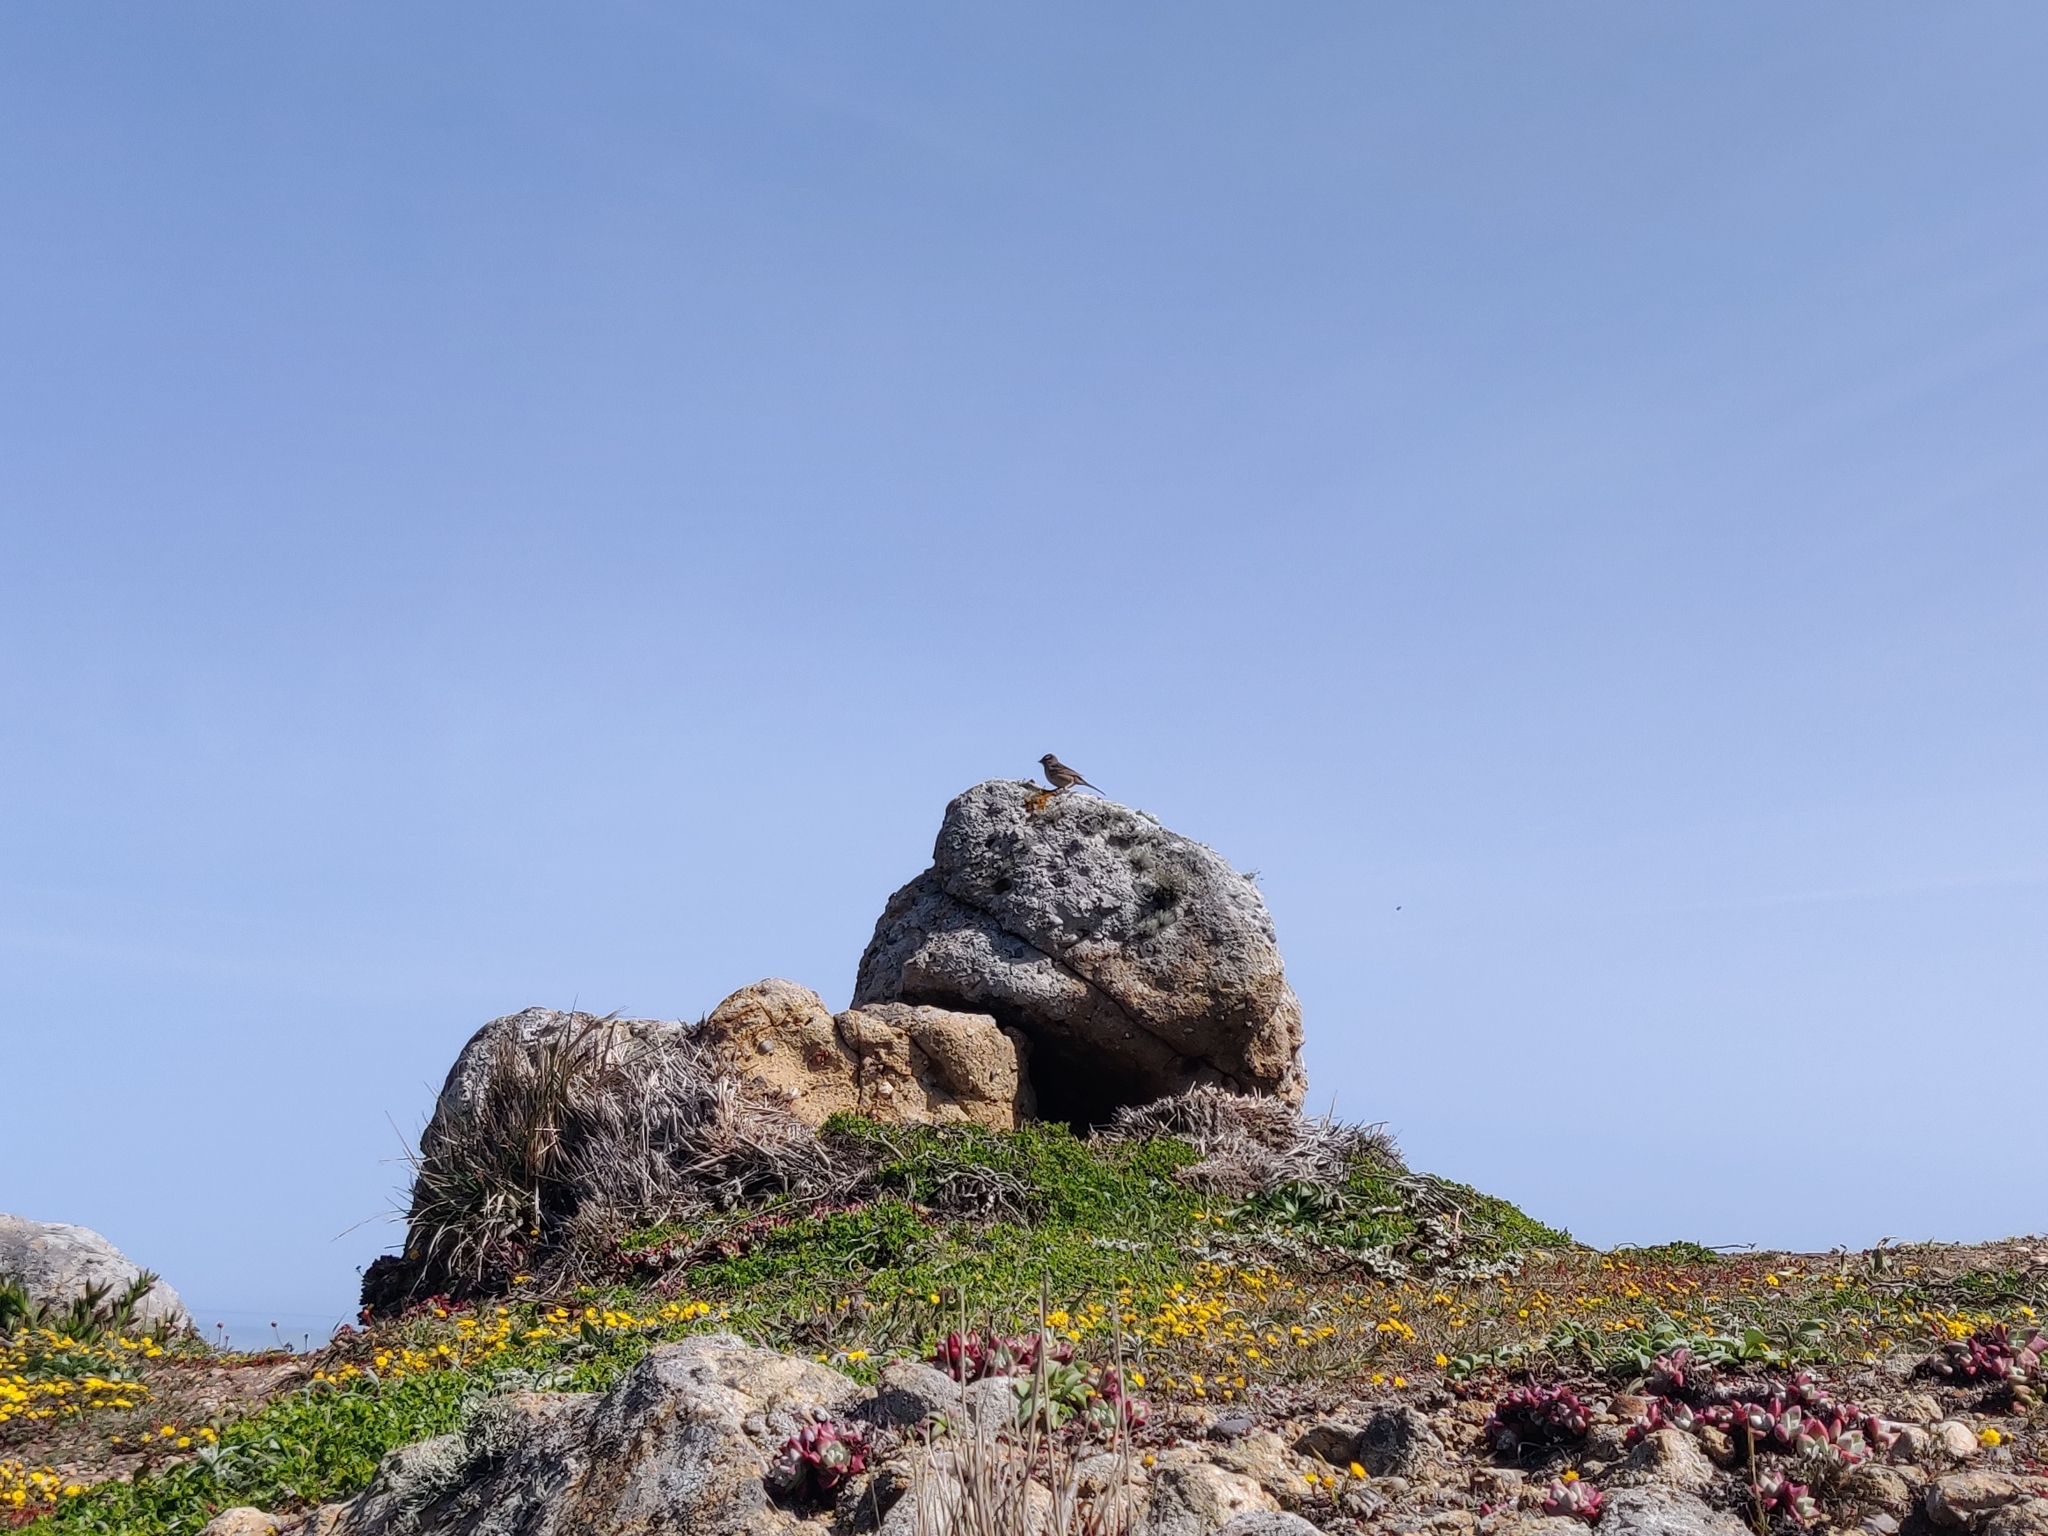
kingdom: Animalia
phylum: Chordata
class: Aves
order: Passeriformes
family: Passerellidae
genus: Zonotrichia
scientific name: Zonotrichia leucophrys
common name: White-crowned sparrow
